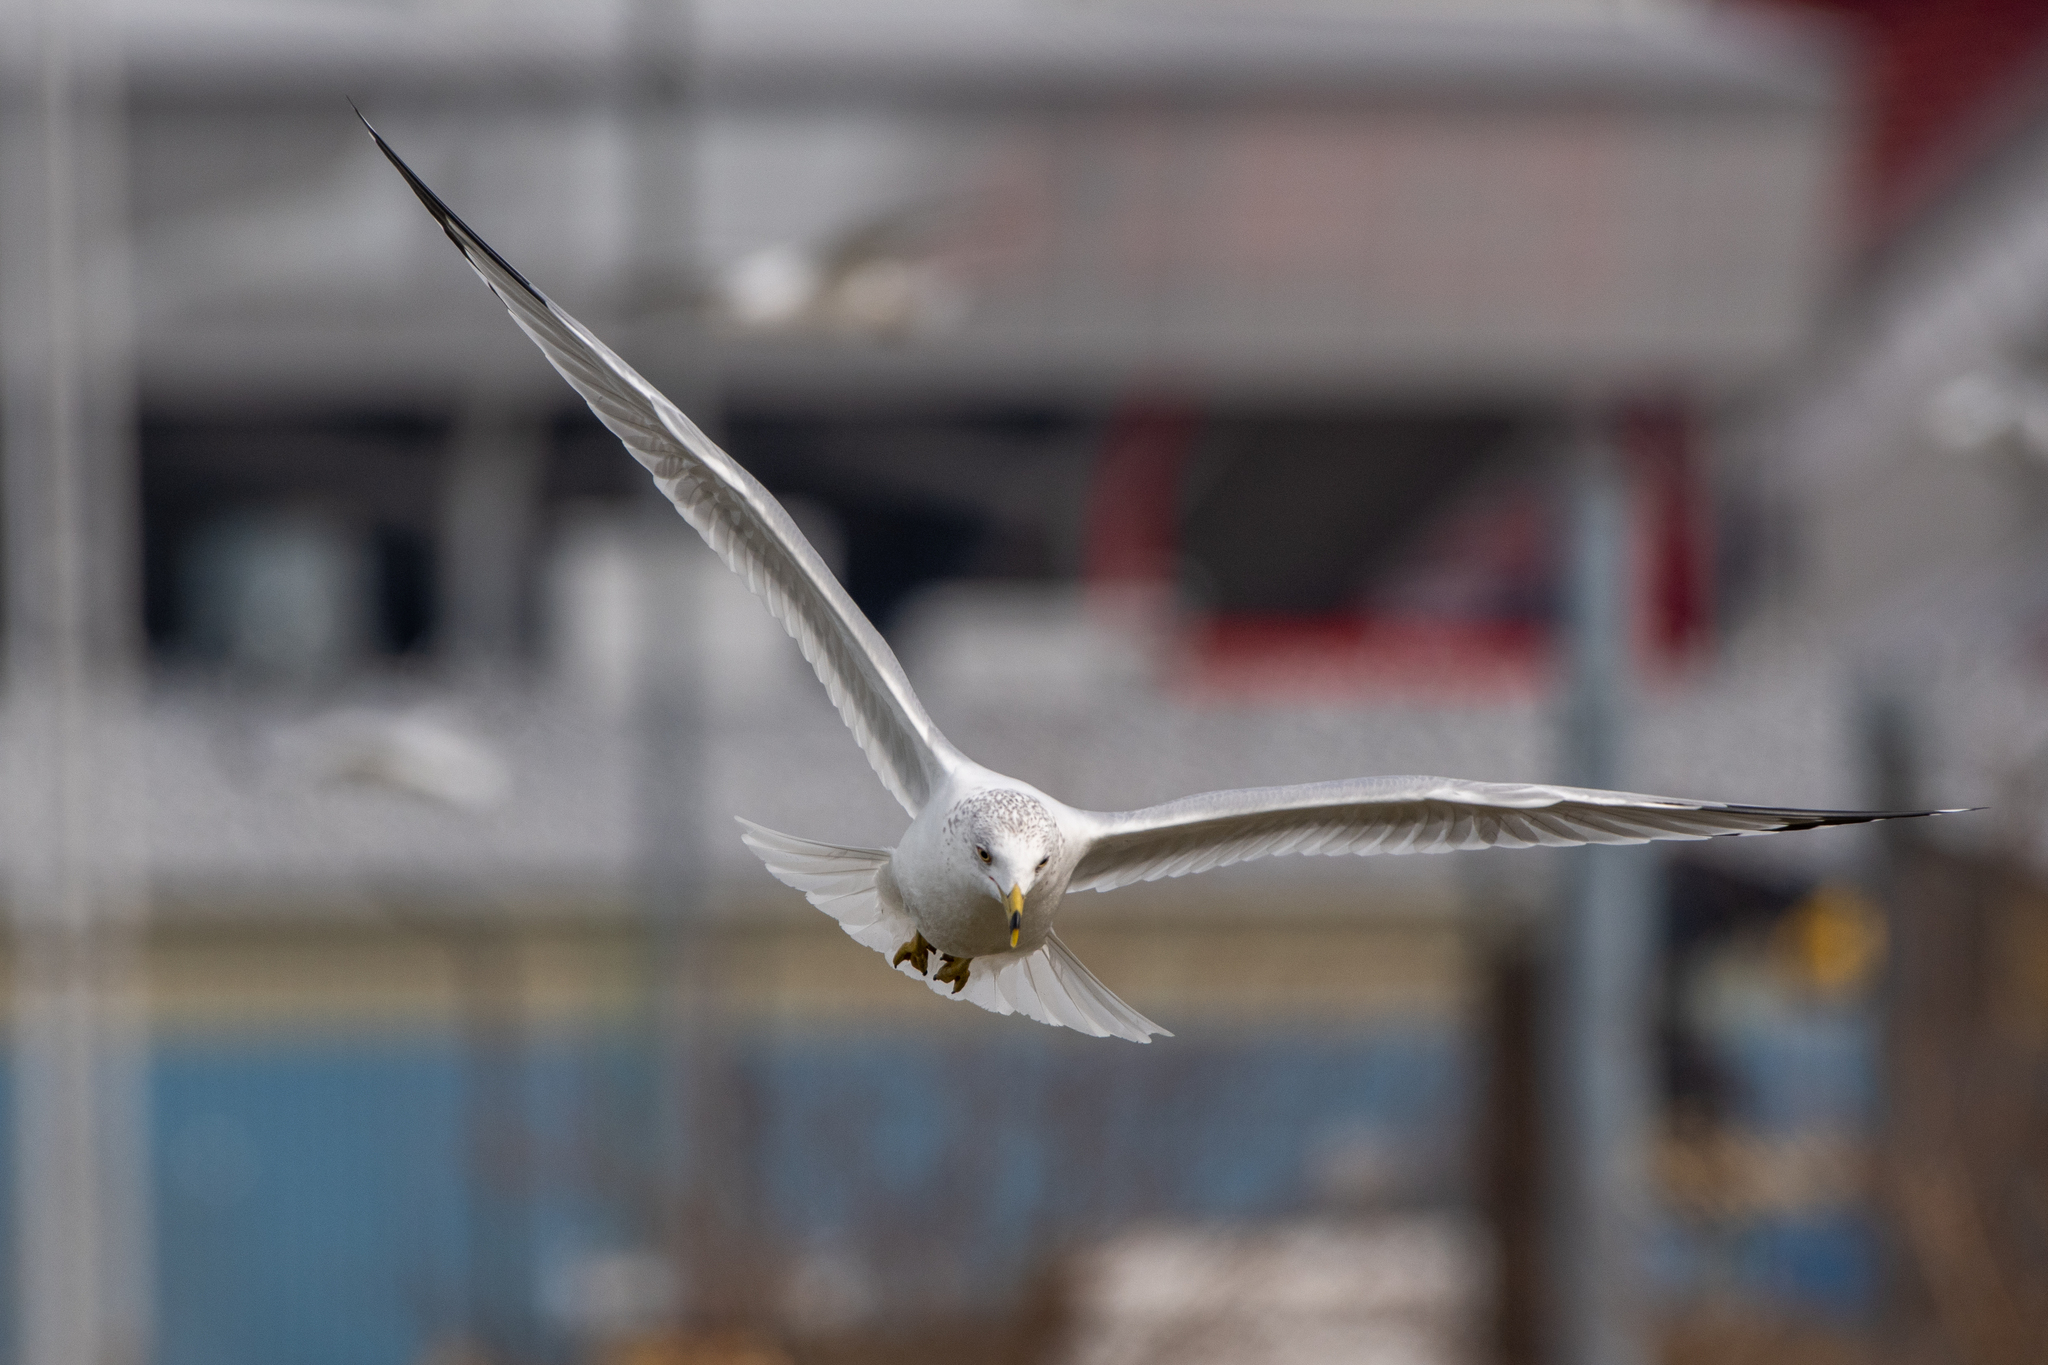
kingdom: Animalia
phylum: Chordata
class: Aves
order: Charadriiformes
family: Laridae
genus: Larus
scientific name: Larus delawarensis
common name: Ring-billed gull
